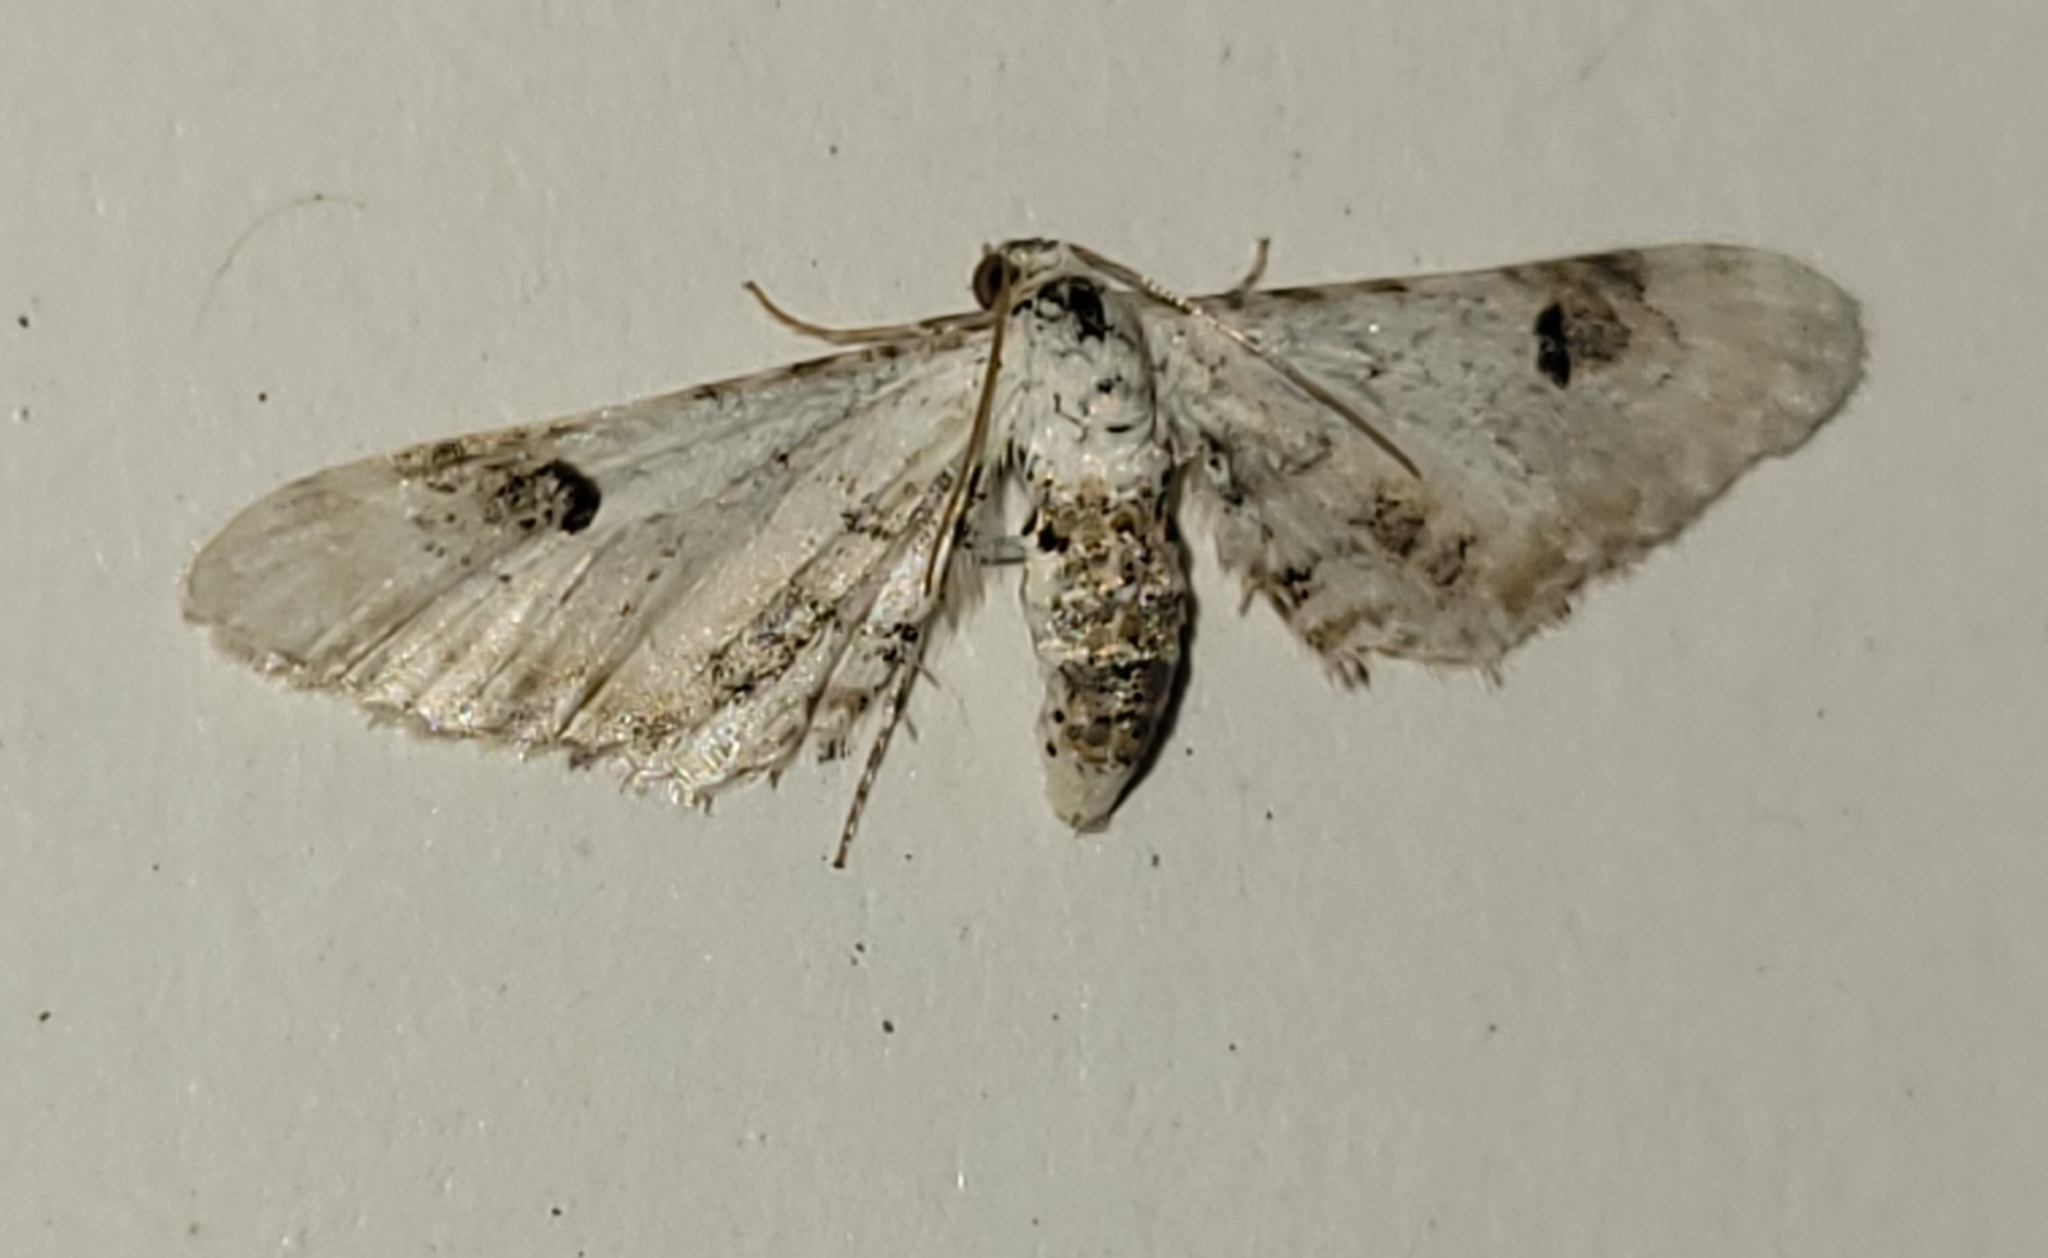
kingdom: Animalia
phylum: Arthropoda
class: Insecta
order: Lepidoptera
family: Geometridae
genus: Eupithecia
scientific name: Eupithecia centaureata
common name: Lime-speck pug
